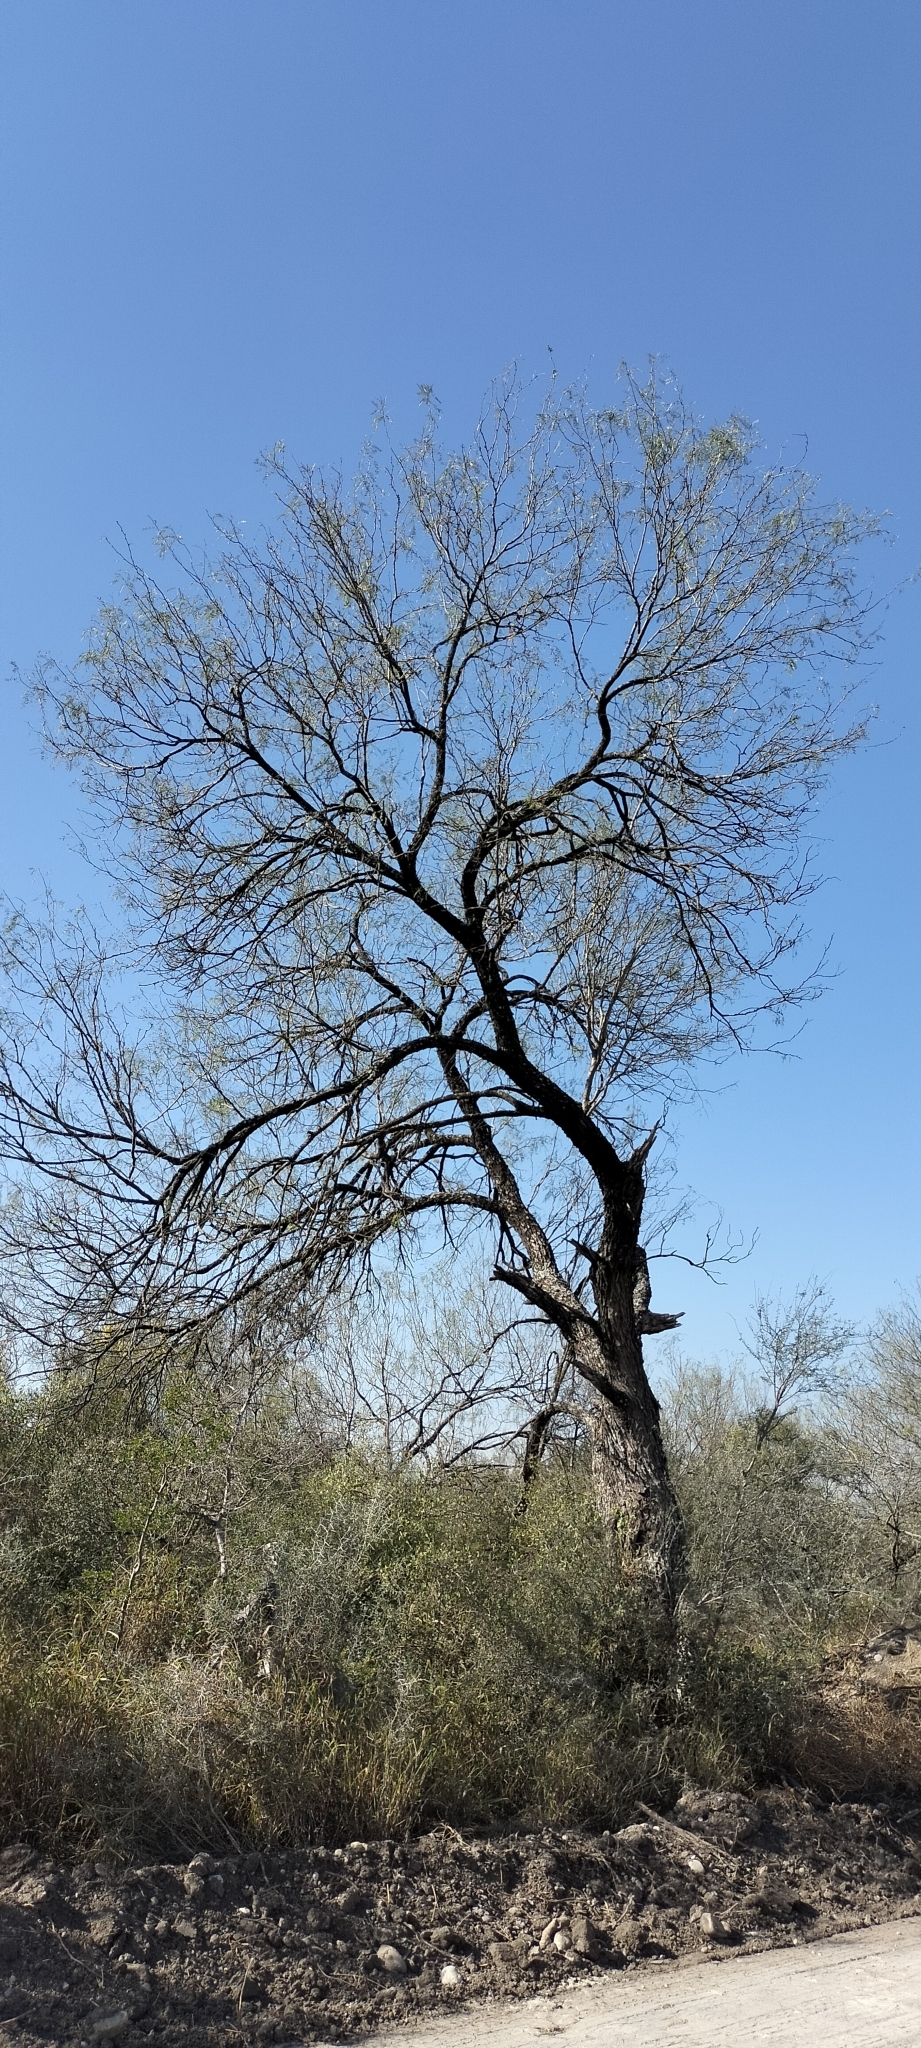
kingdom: Plantae
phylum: Tracheophyta
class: Magnoliopsida
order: Fabales
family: Fabaceae
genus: Prosopis
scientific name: Prosopis glandulosa
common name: Honey mesquite
